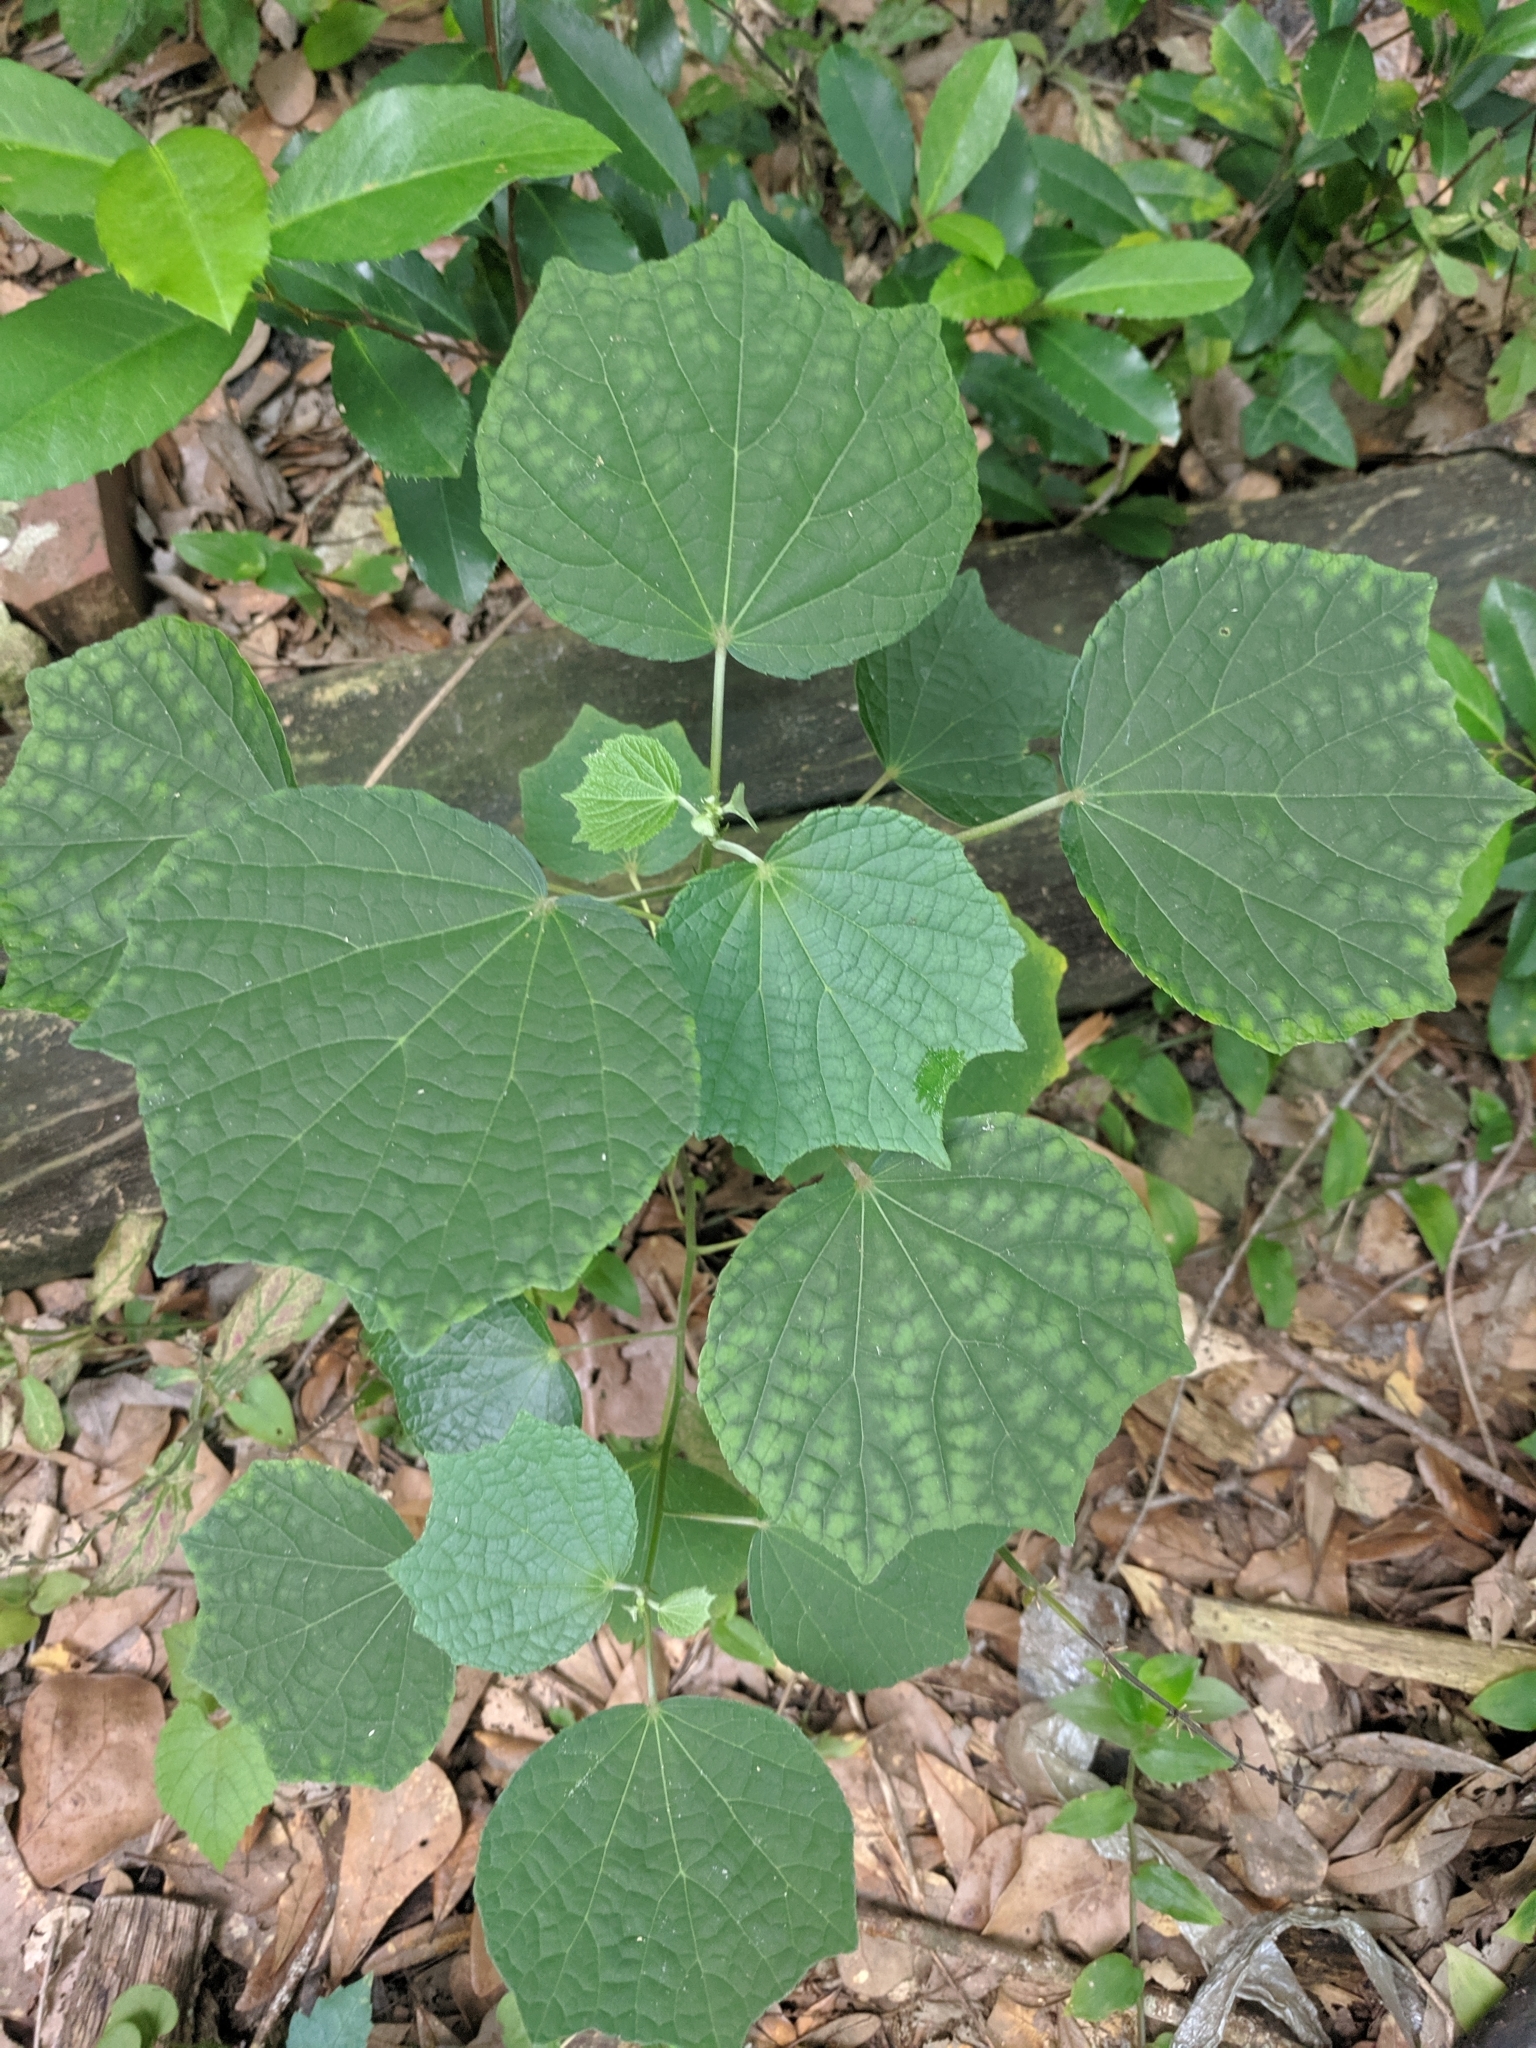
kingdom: Plantae
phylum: Tracheophyta
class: Magnoliopsida
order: Malvales
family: Malvaceae
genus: Urena
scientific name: Urena lobata
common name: Caesarweed
